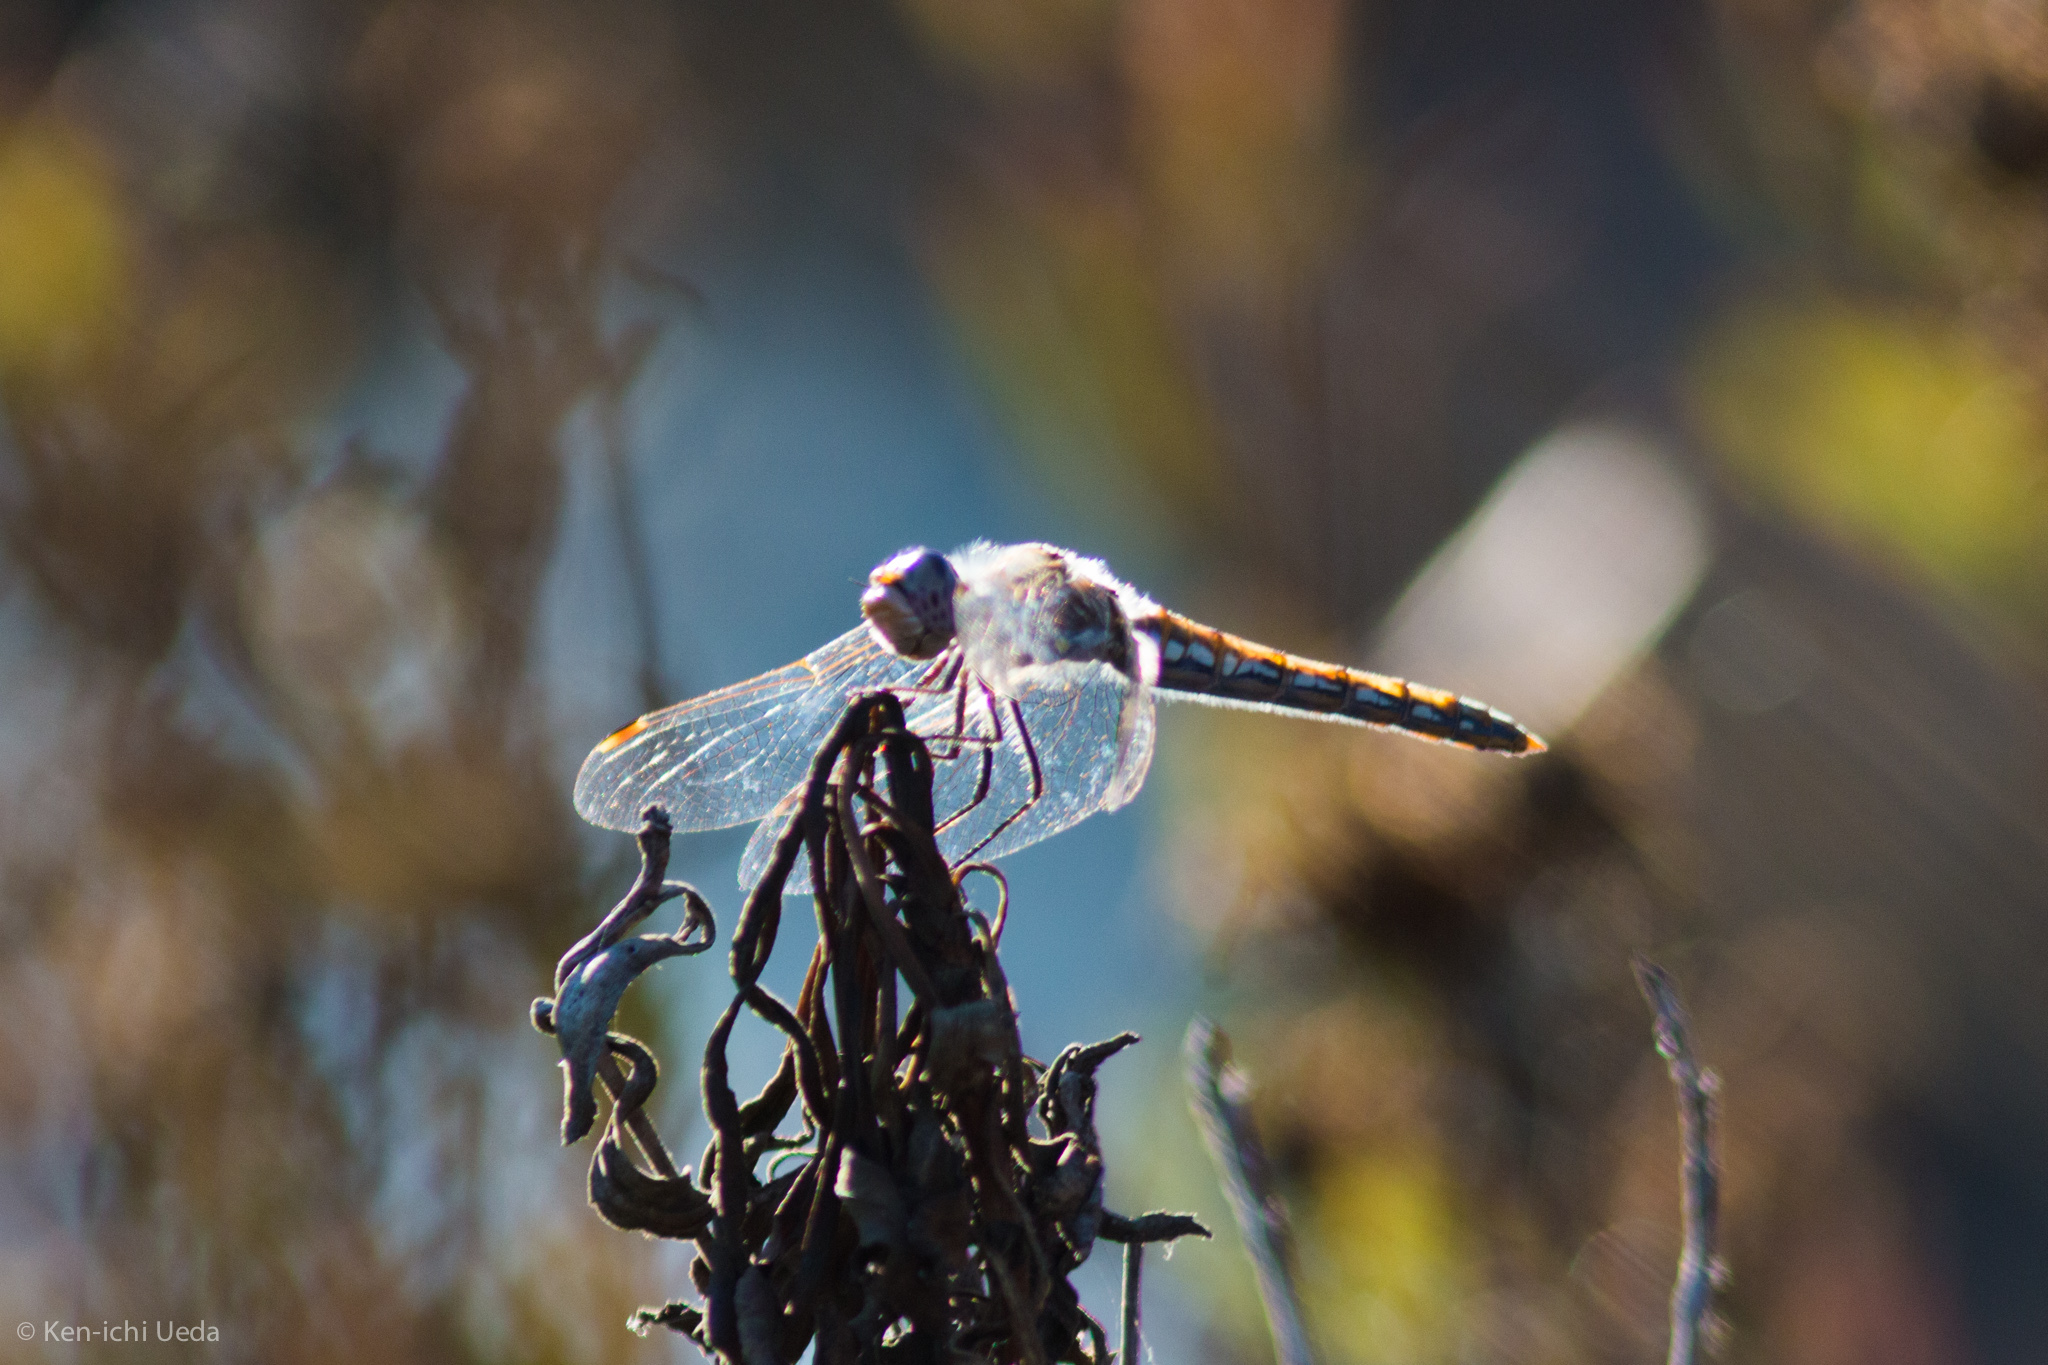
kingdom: Animalia
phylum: Arthropoda
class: Insecta
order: Odonata
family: Libellulidae
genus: Sympetrum
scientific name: Sympetrum corruptum
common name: Variegated meadowhawk
